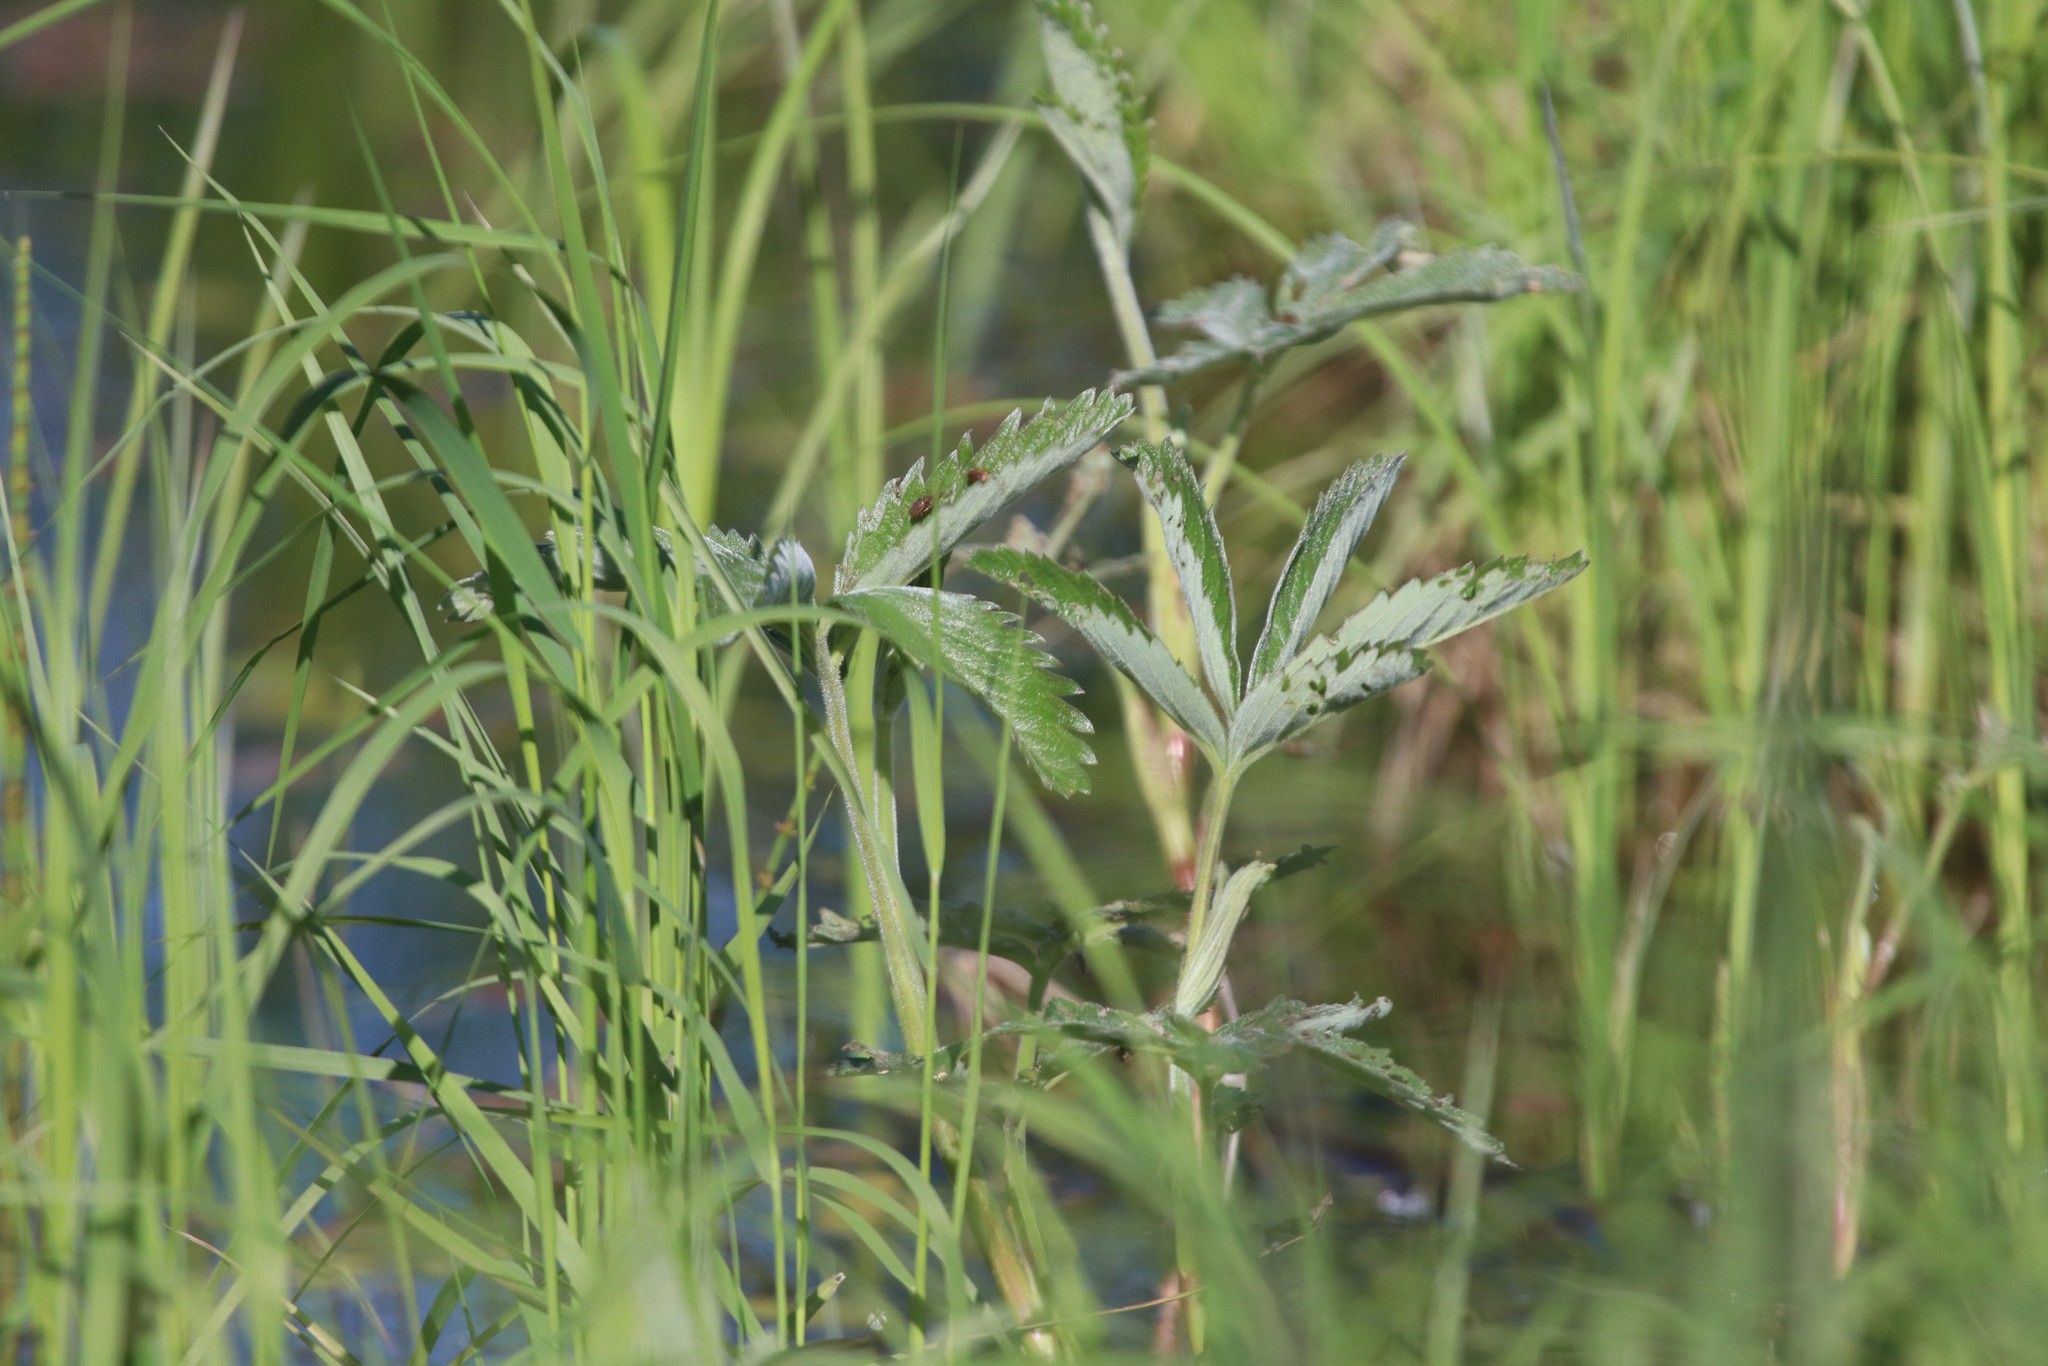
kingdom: Plantae
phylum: Tracheophyta
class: Magnoliopsida
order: Rosales
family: Rosaceae
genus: Comarum
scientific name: Comarum palustre
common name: Marsh cinquefoil
